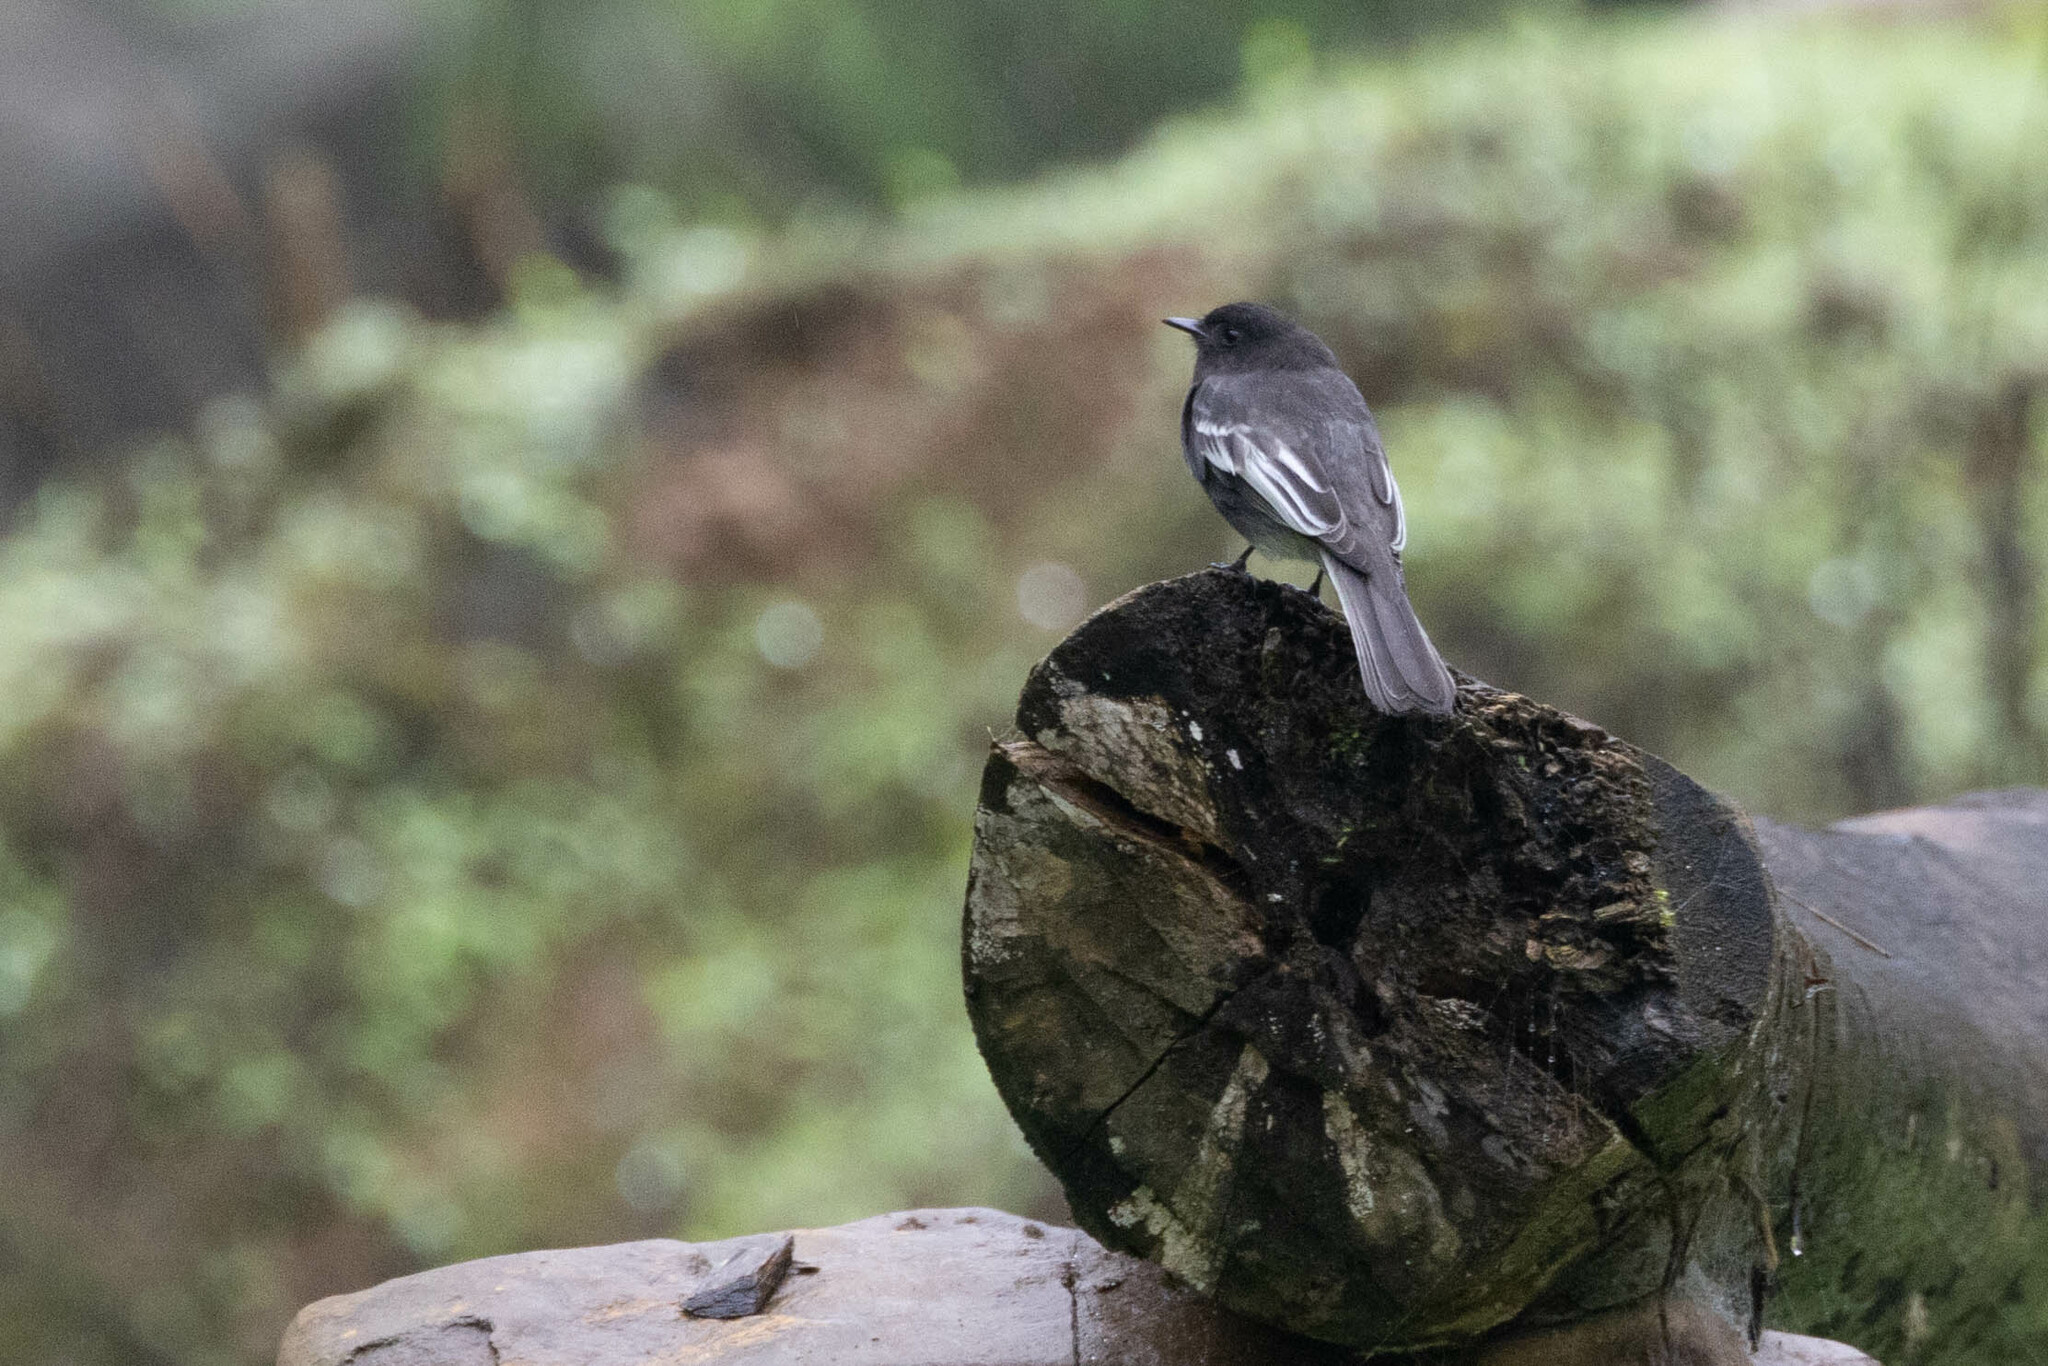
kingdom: Animalia
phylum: Chordata
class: Aves
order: Passeriformes
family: Tyrannidae
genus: Sayornis
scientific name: Sayornis nigricans
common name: Black phoebe
